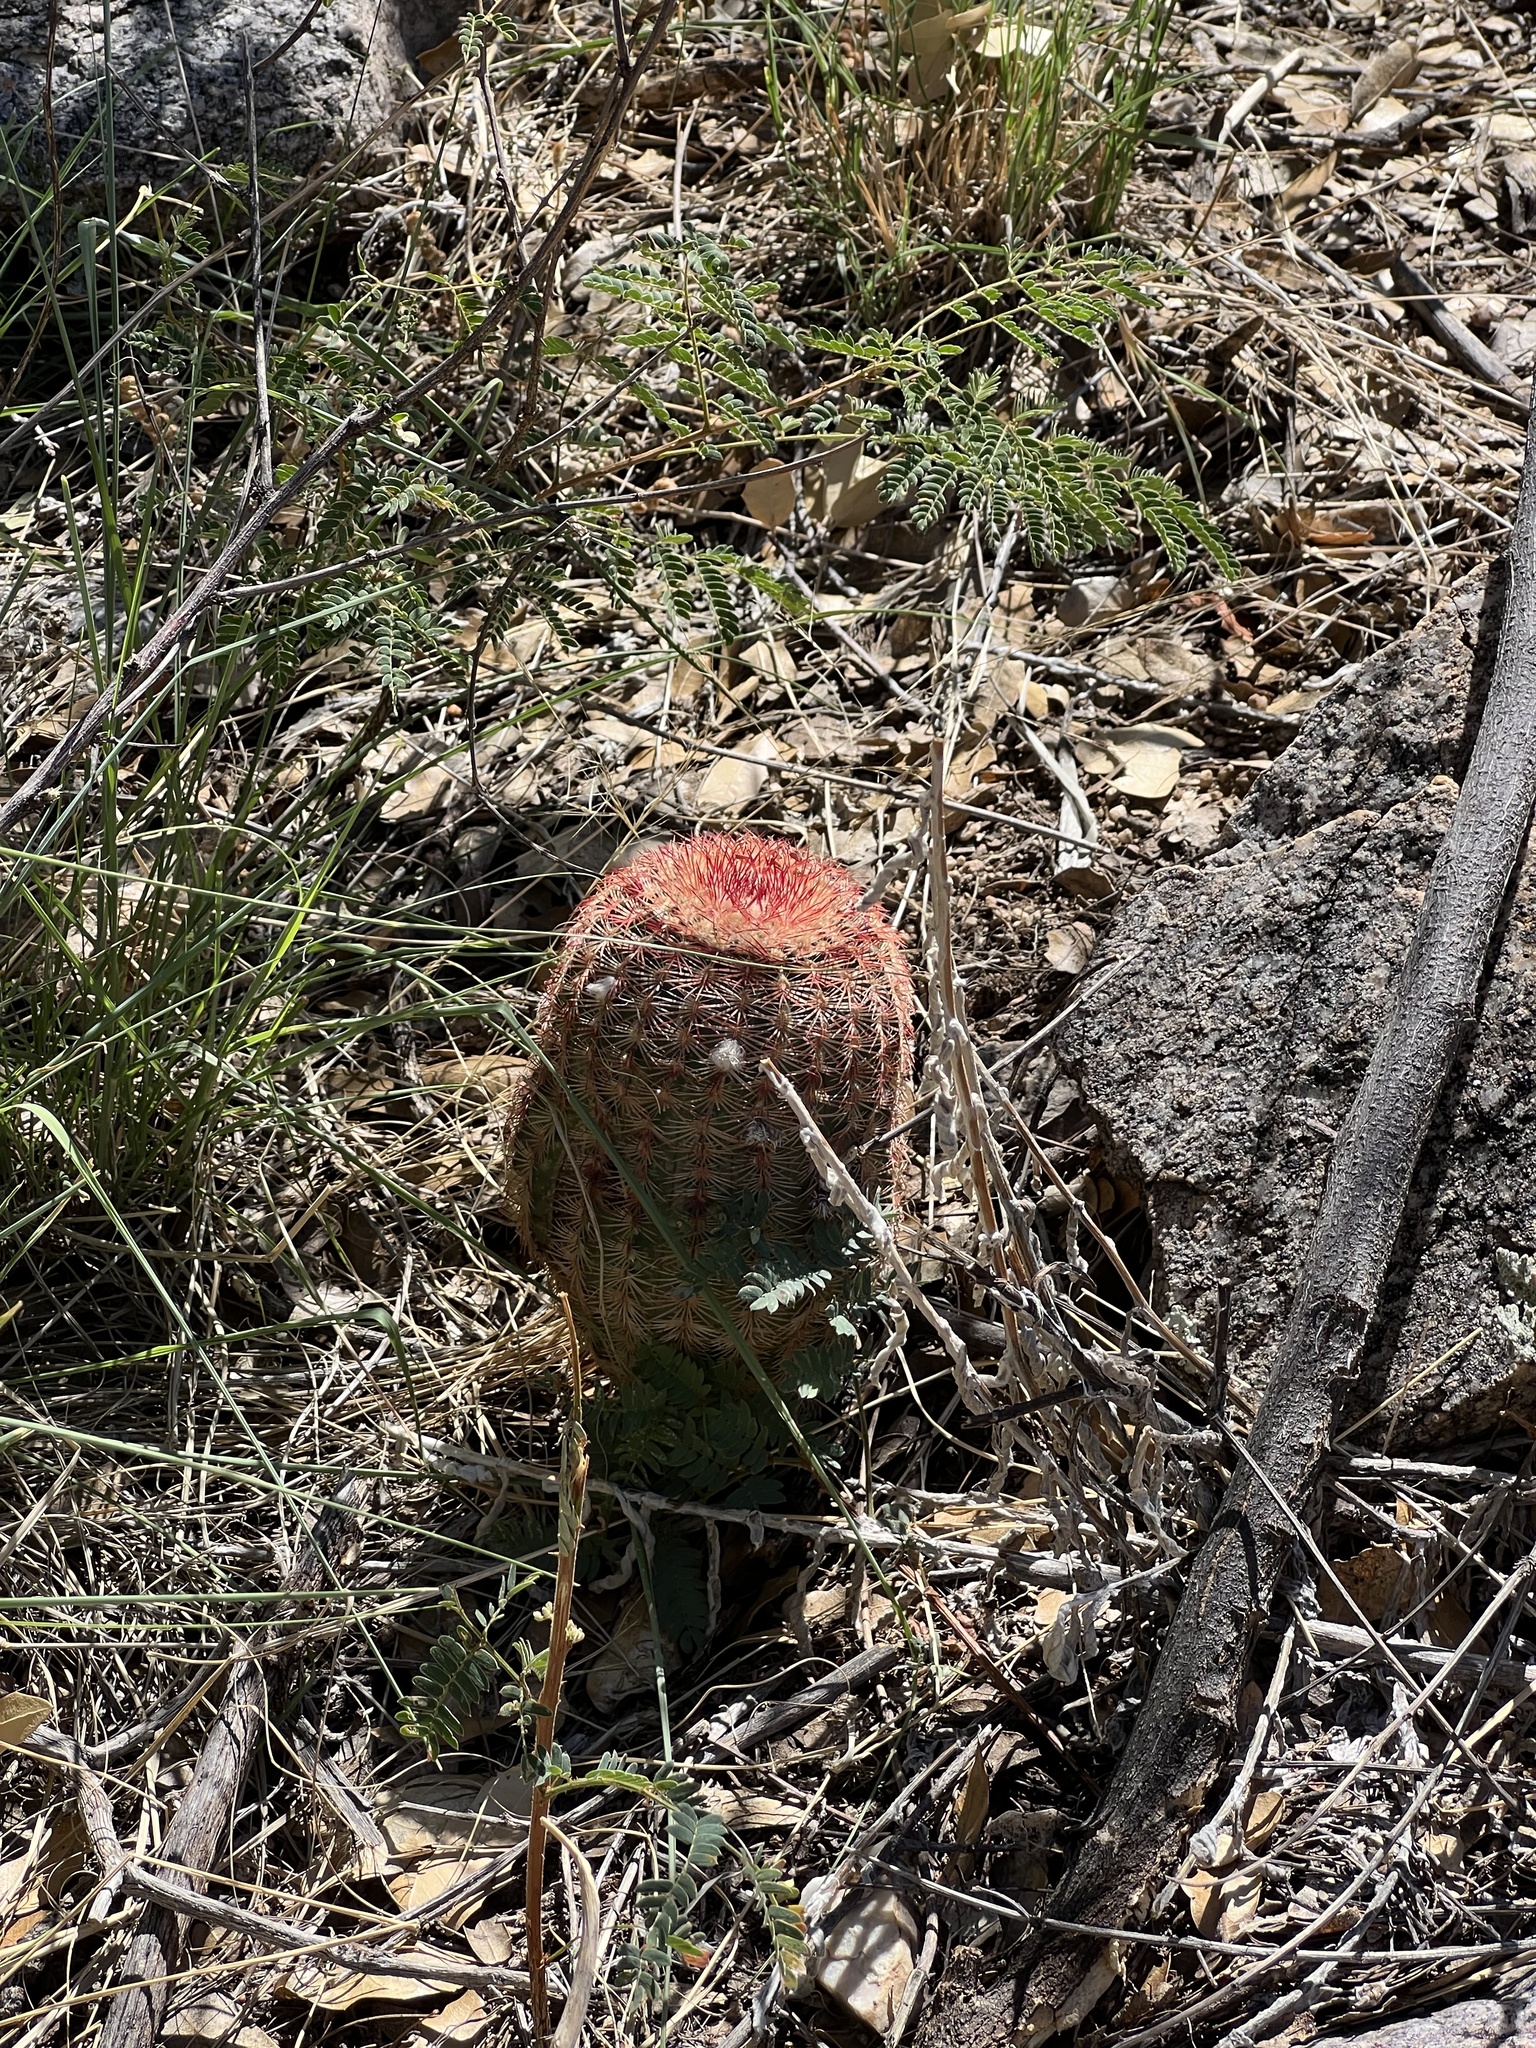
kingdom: Plantae
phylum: Tracheophyta
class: Magnoliopsida
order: Caryophyllales
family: Cactaceae
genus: Echinocereus
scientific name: Echinocereus rigidissimus
